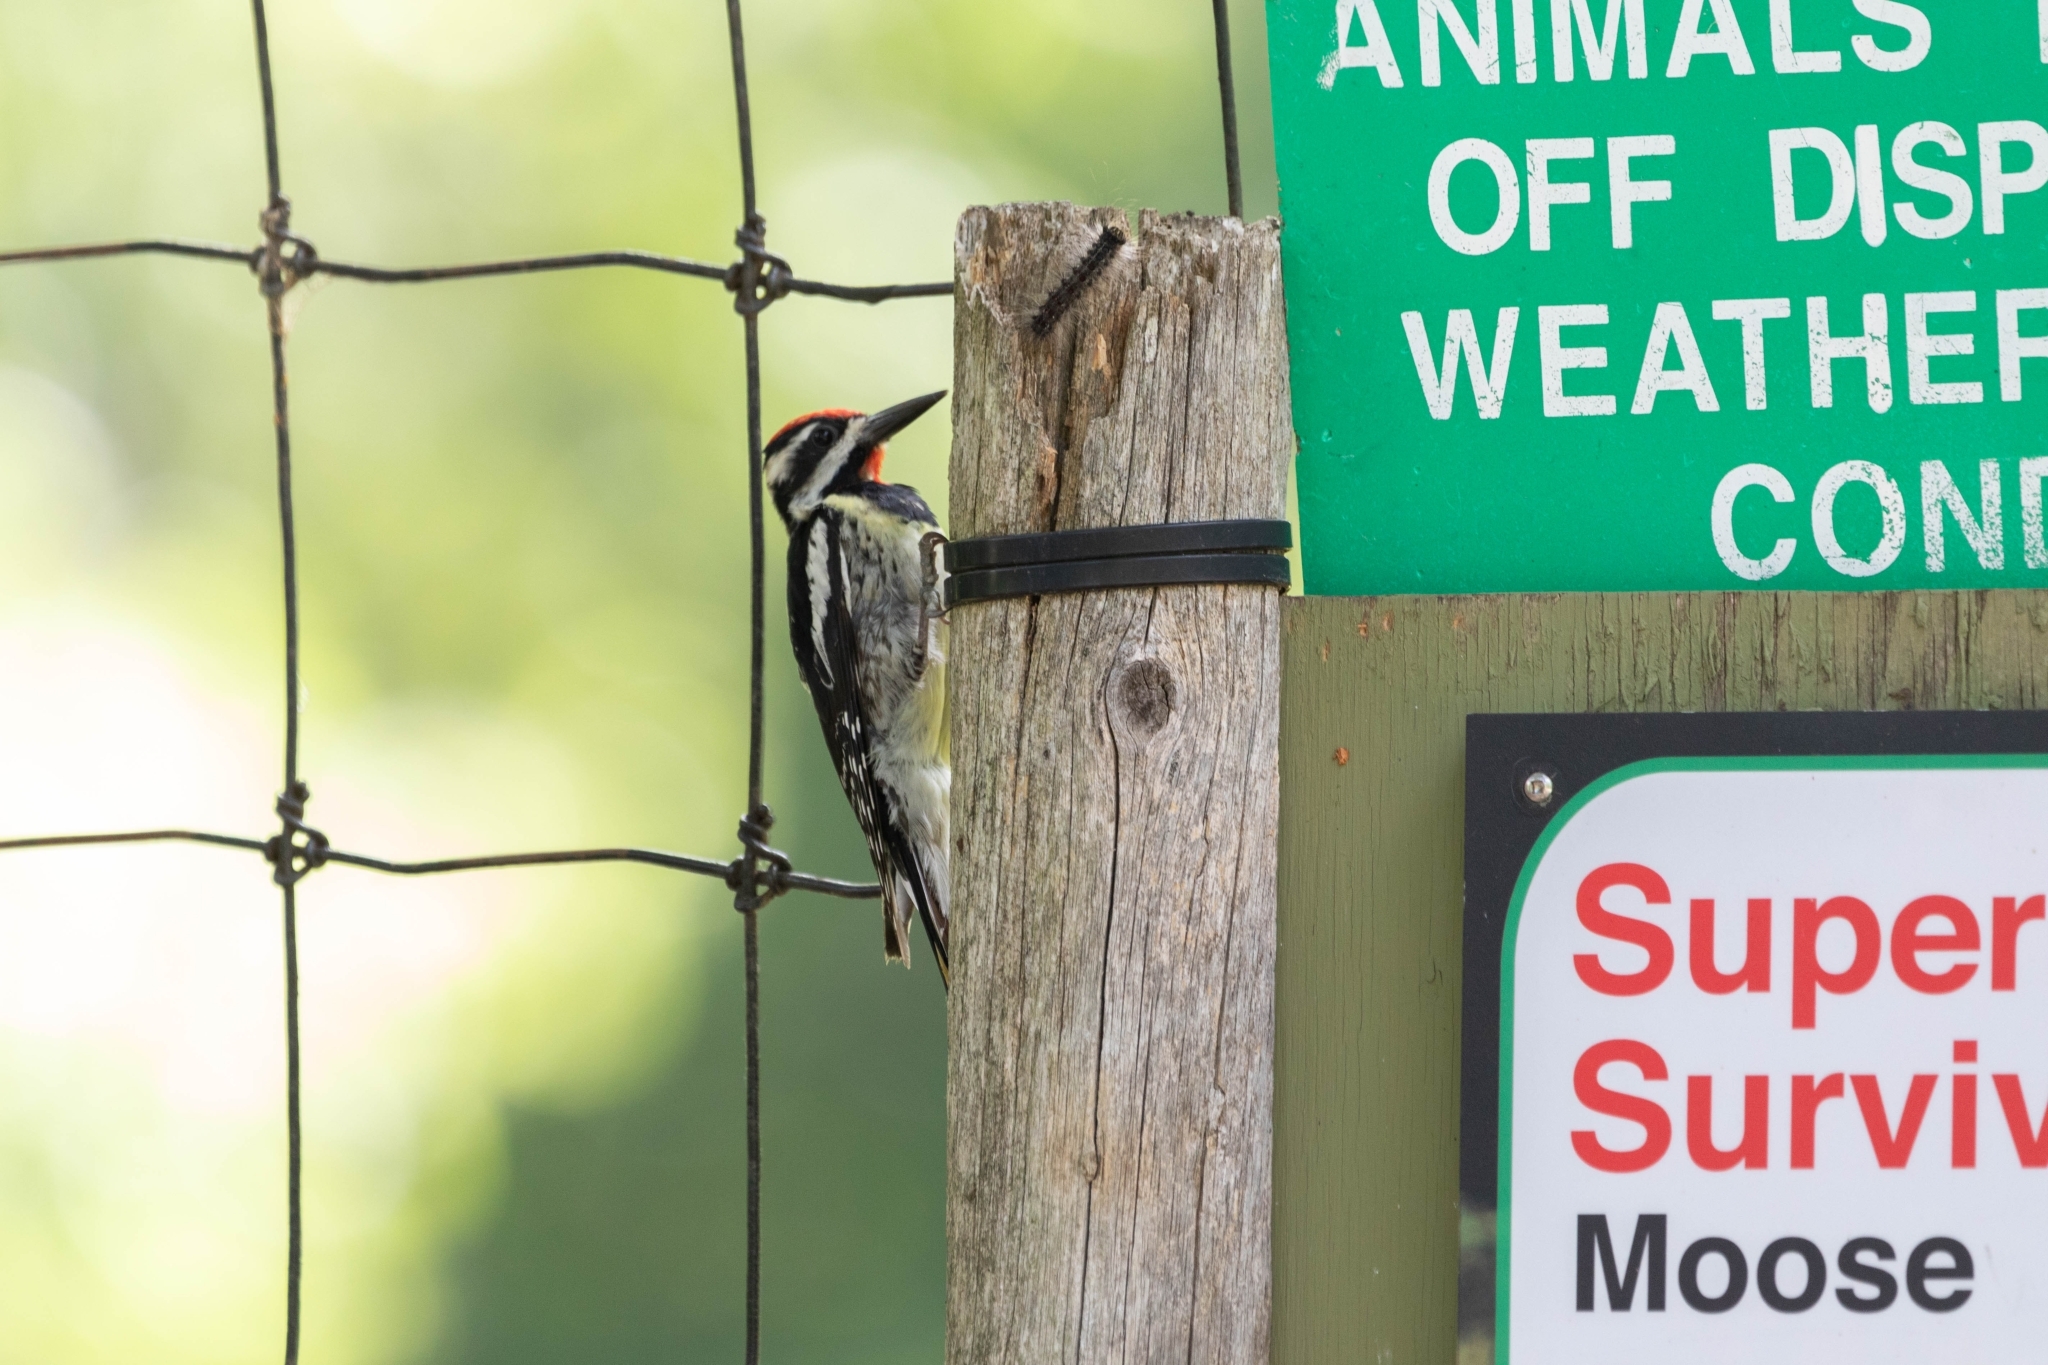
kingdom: Animalia
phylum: Chordata
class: Aves
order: Piciformes
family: Picidae
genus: Sphyrapicus
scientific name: Sphyrapicus varius
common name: Yellow-bellied sapsucker
